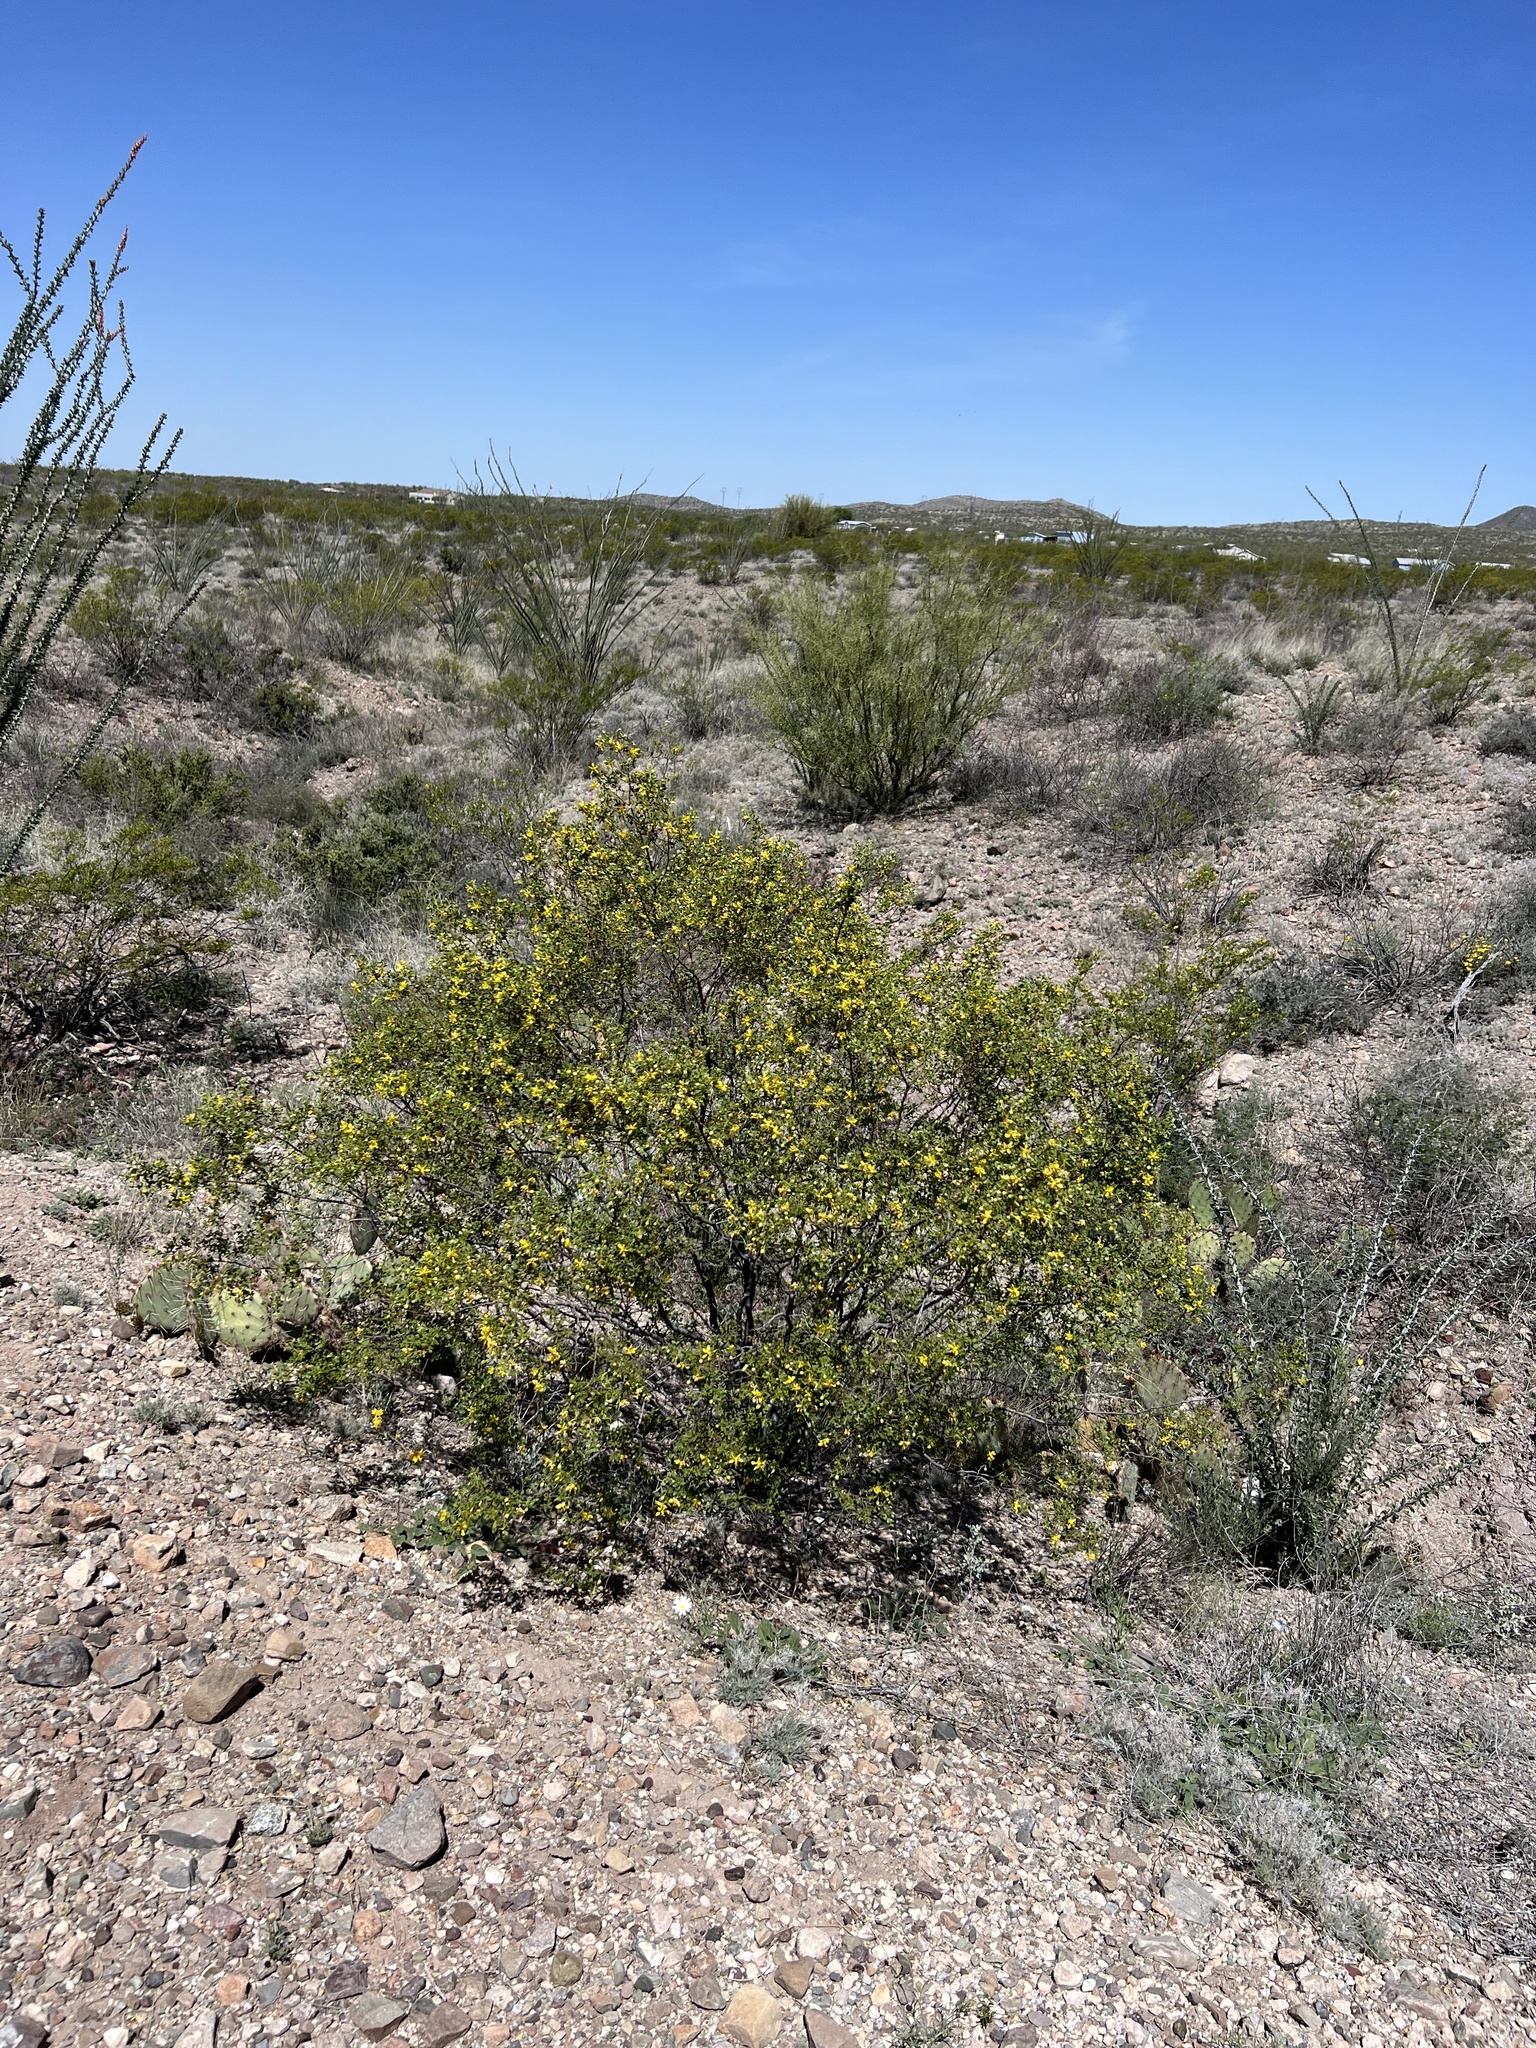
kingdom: Plantae
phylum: Tracheophyta
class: Magnoliopsida
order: Zygophyllales
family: Zygophyllaceae
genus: Larrea
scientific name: Larrea tridentata
